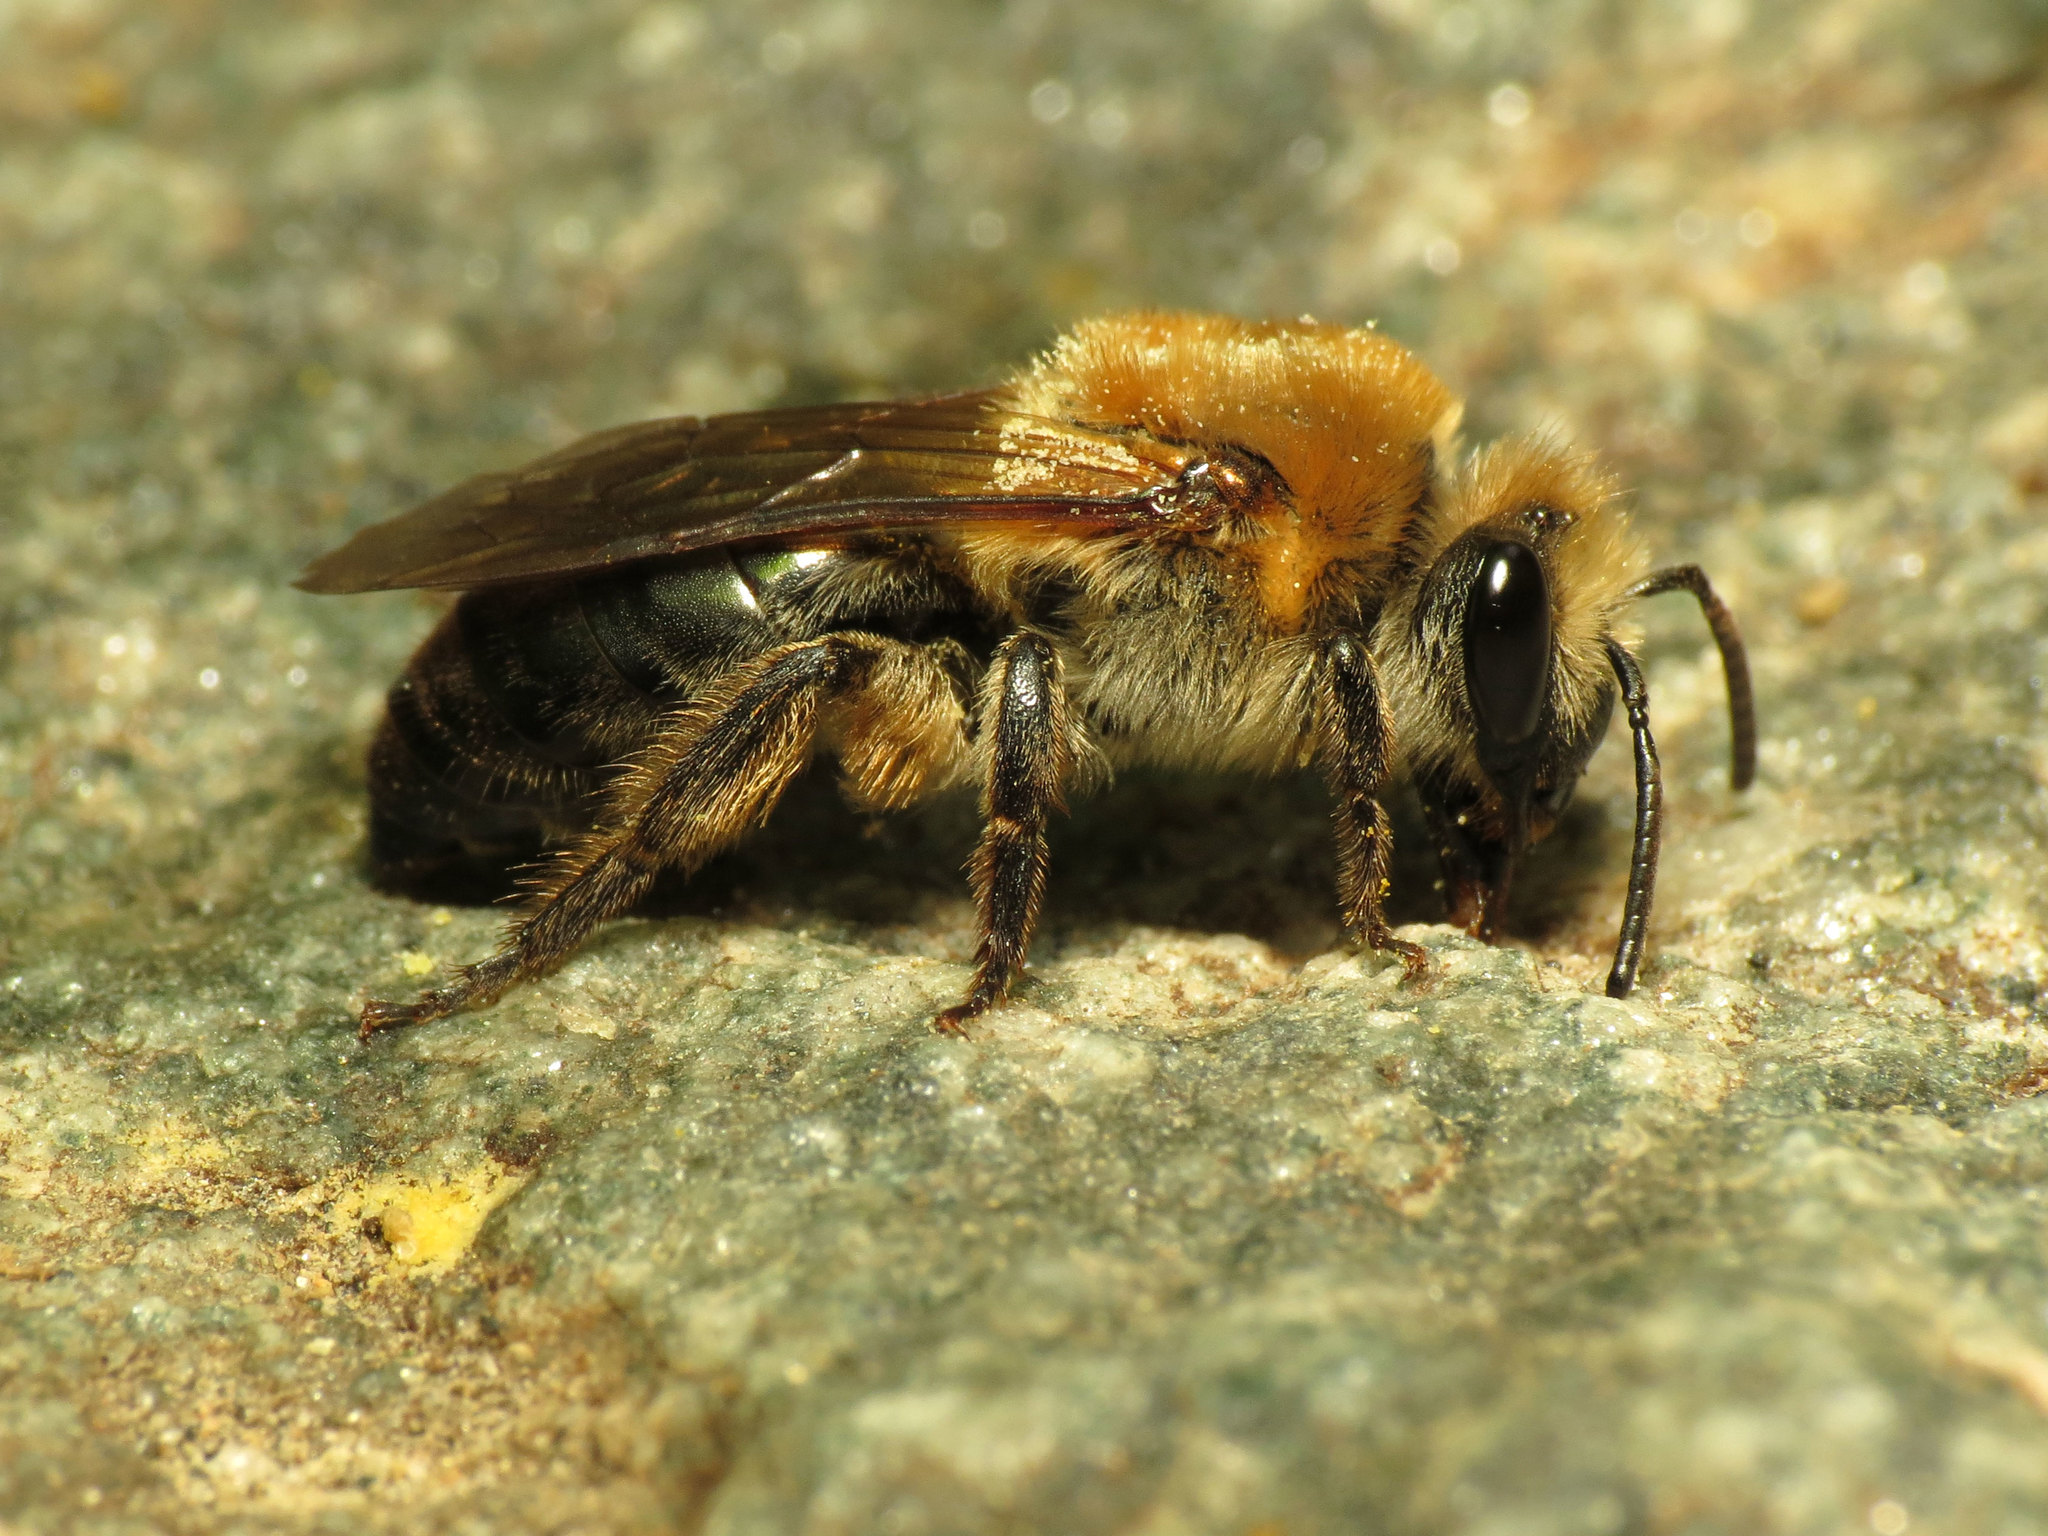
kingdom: Animalia
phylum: Arthropoda
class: Insecta
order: Hymenoptera
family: Colletidae
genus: Colletes
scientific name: Colletes thoracicus
